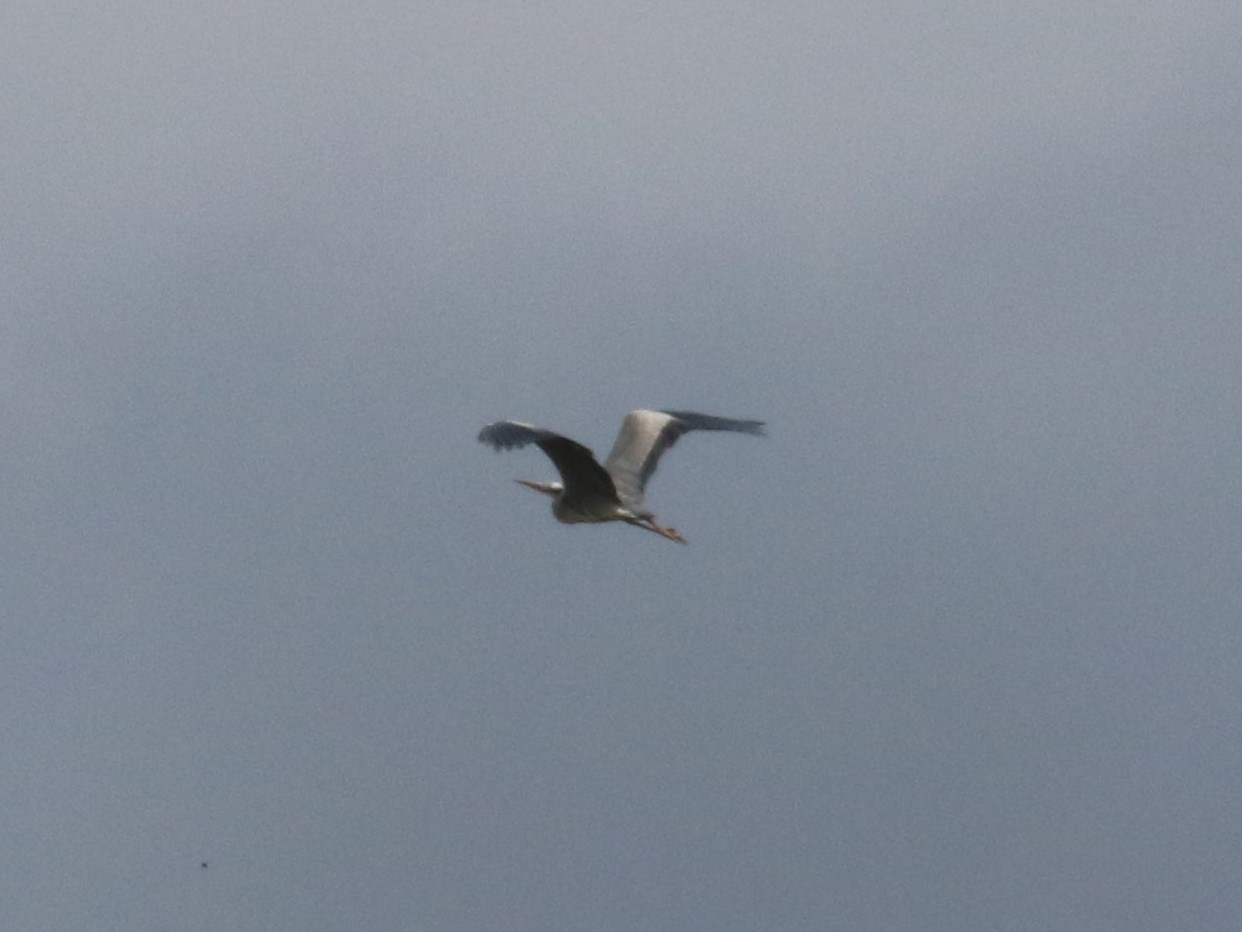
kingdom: Animalia
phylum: Chordata
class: Aves
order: Pelecaniformes
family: Ardeidae
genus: Ardea
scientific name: Ardea cinerea
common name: Grey heron
